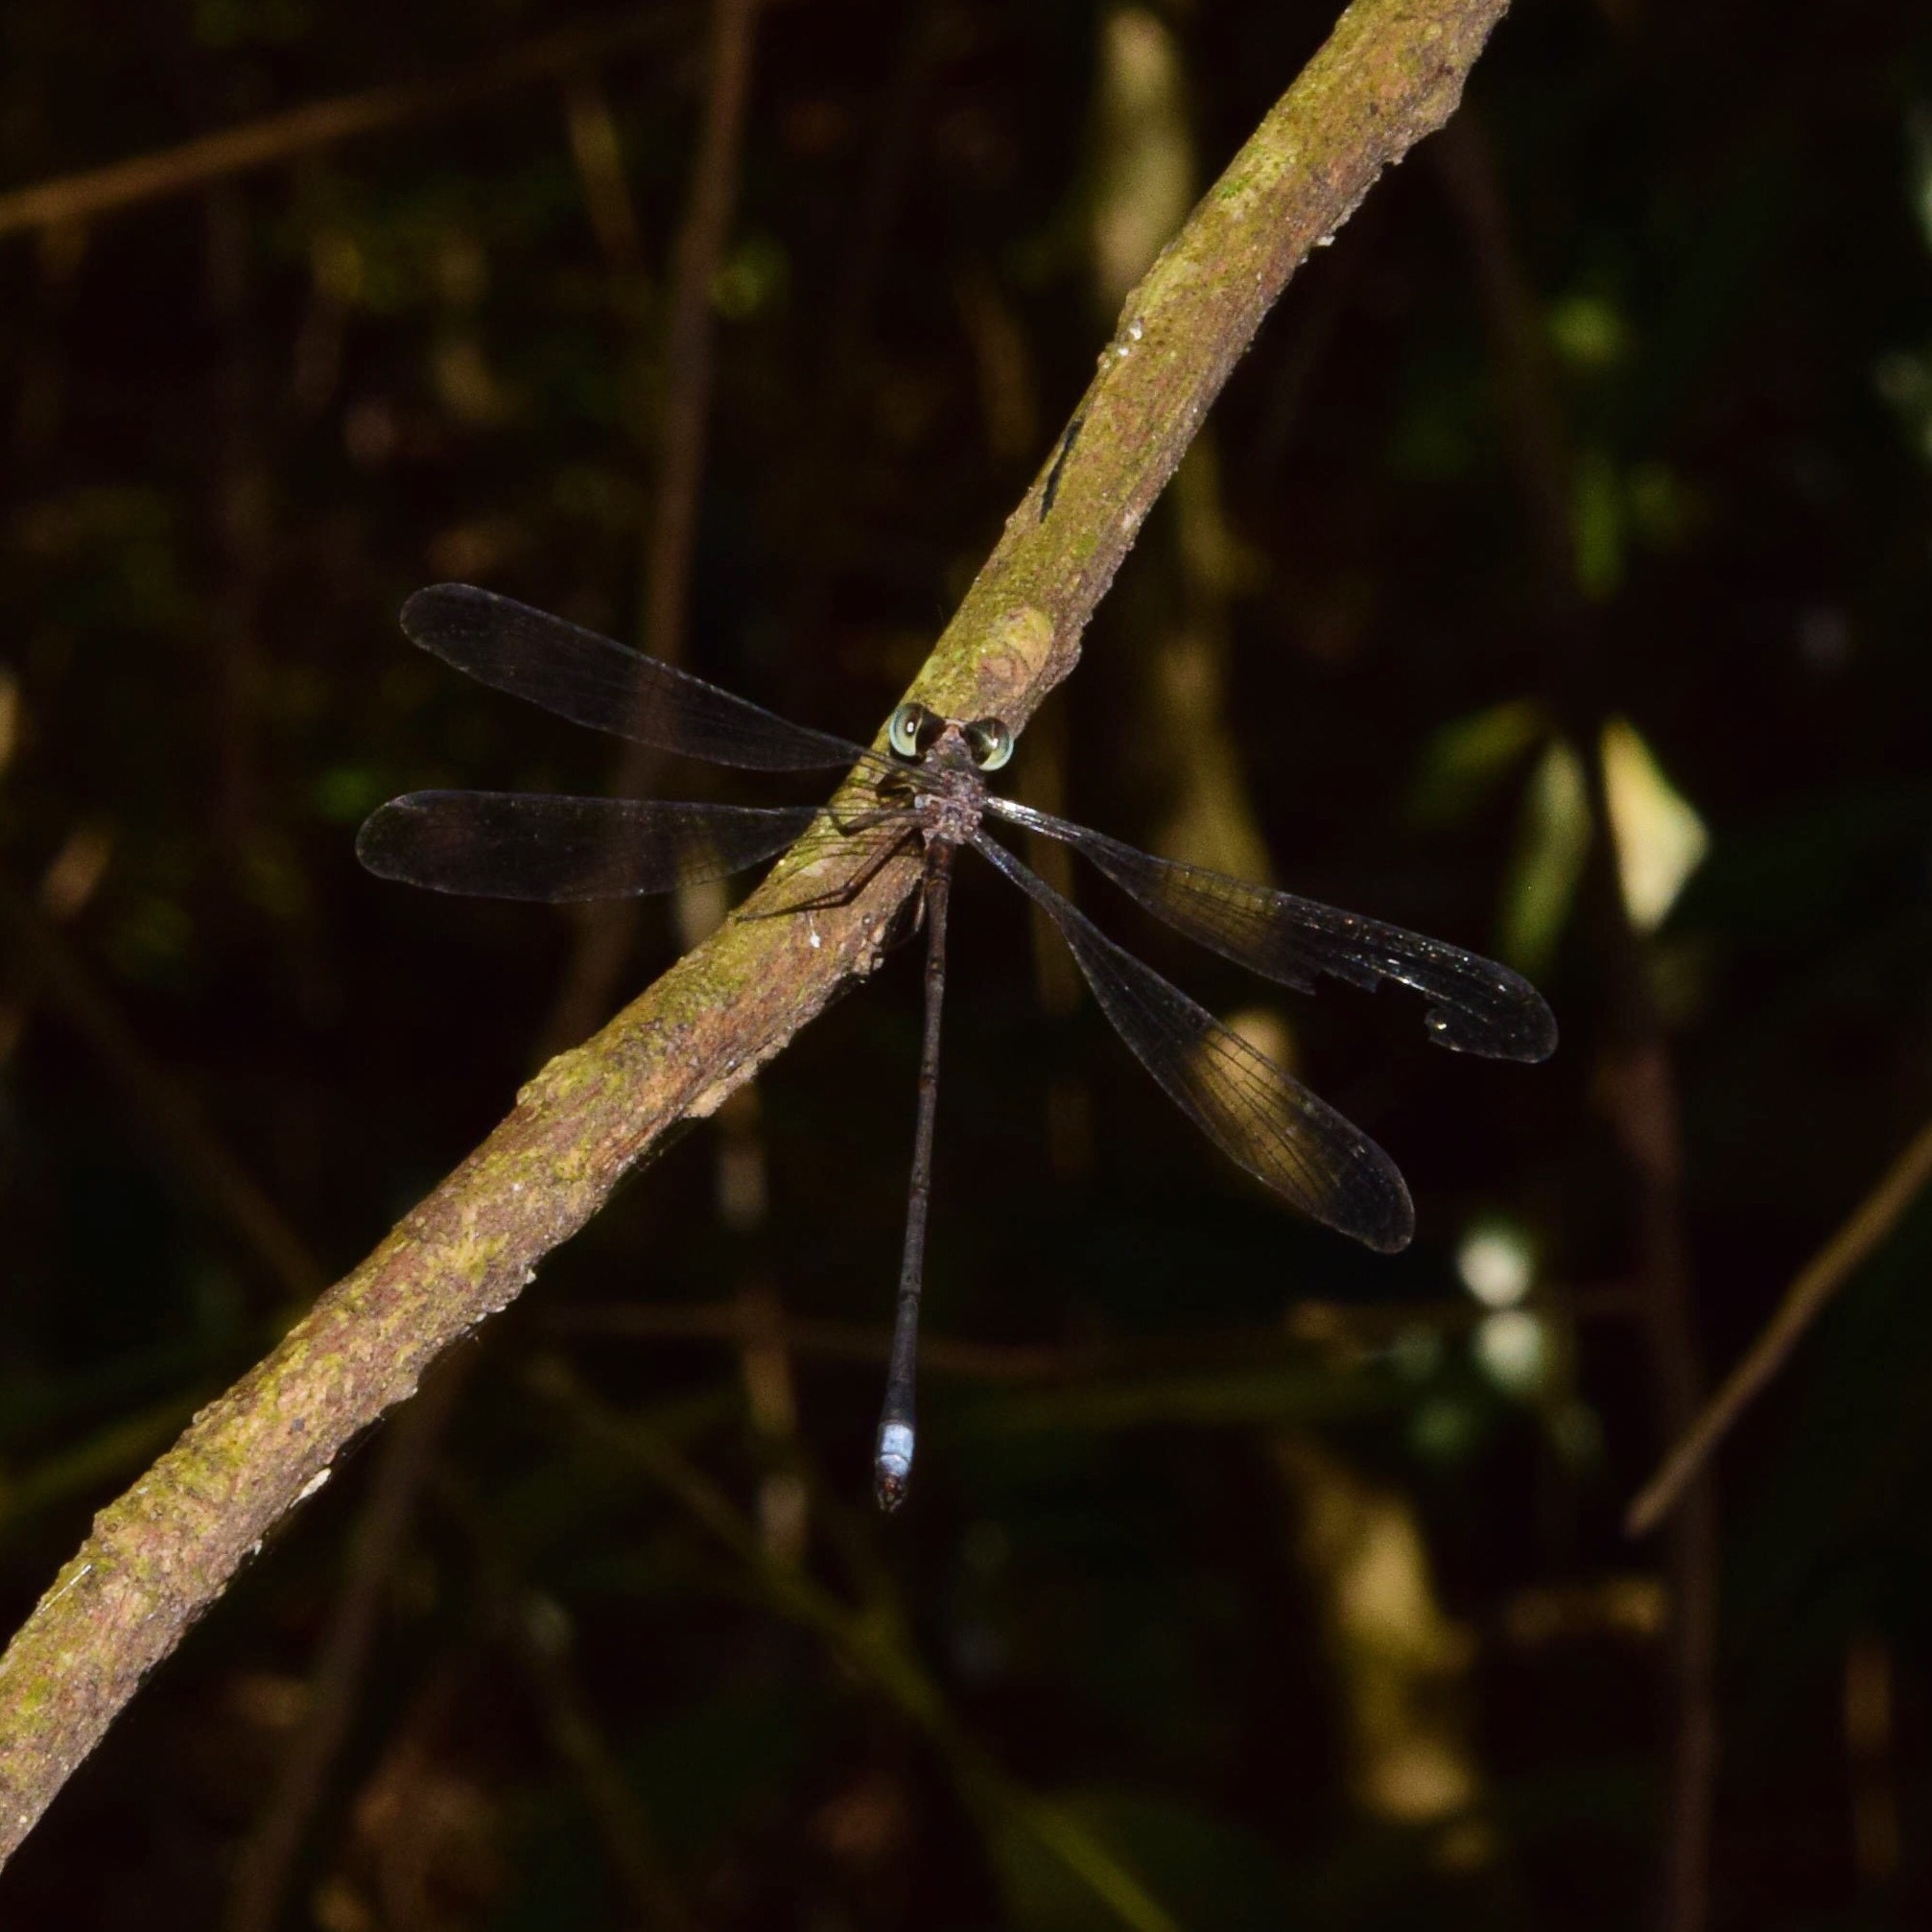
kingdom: Animalia
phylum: Arthropoda
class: Insecta
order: Odonata
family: Synlestidae
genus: Chlorolestes
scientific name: Chlorolestes tessellatus
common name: Forest malachite
